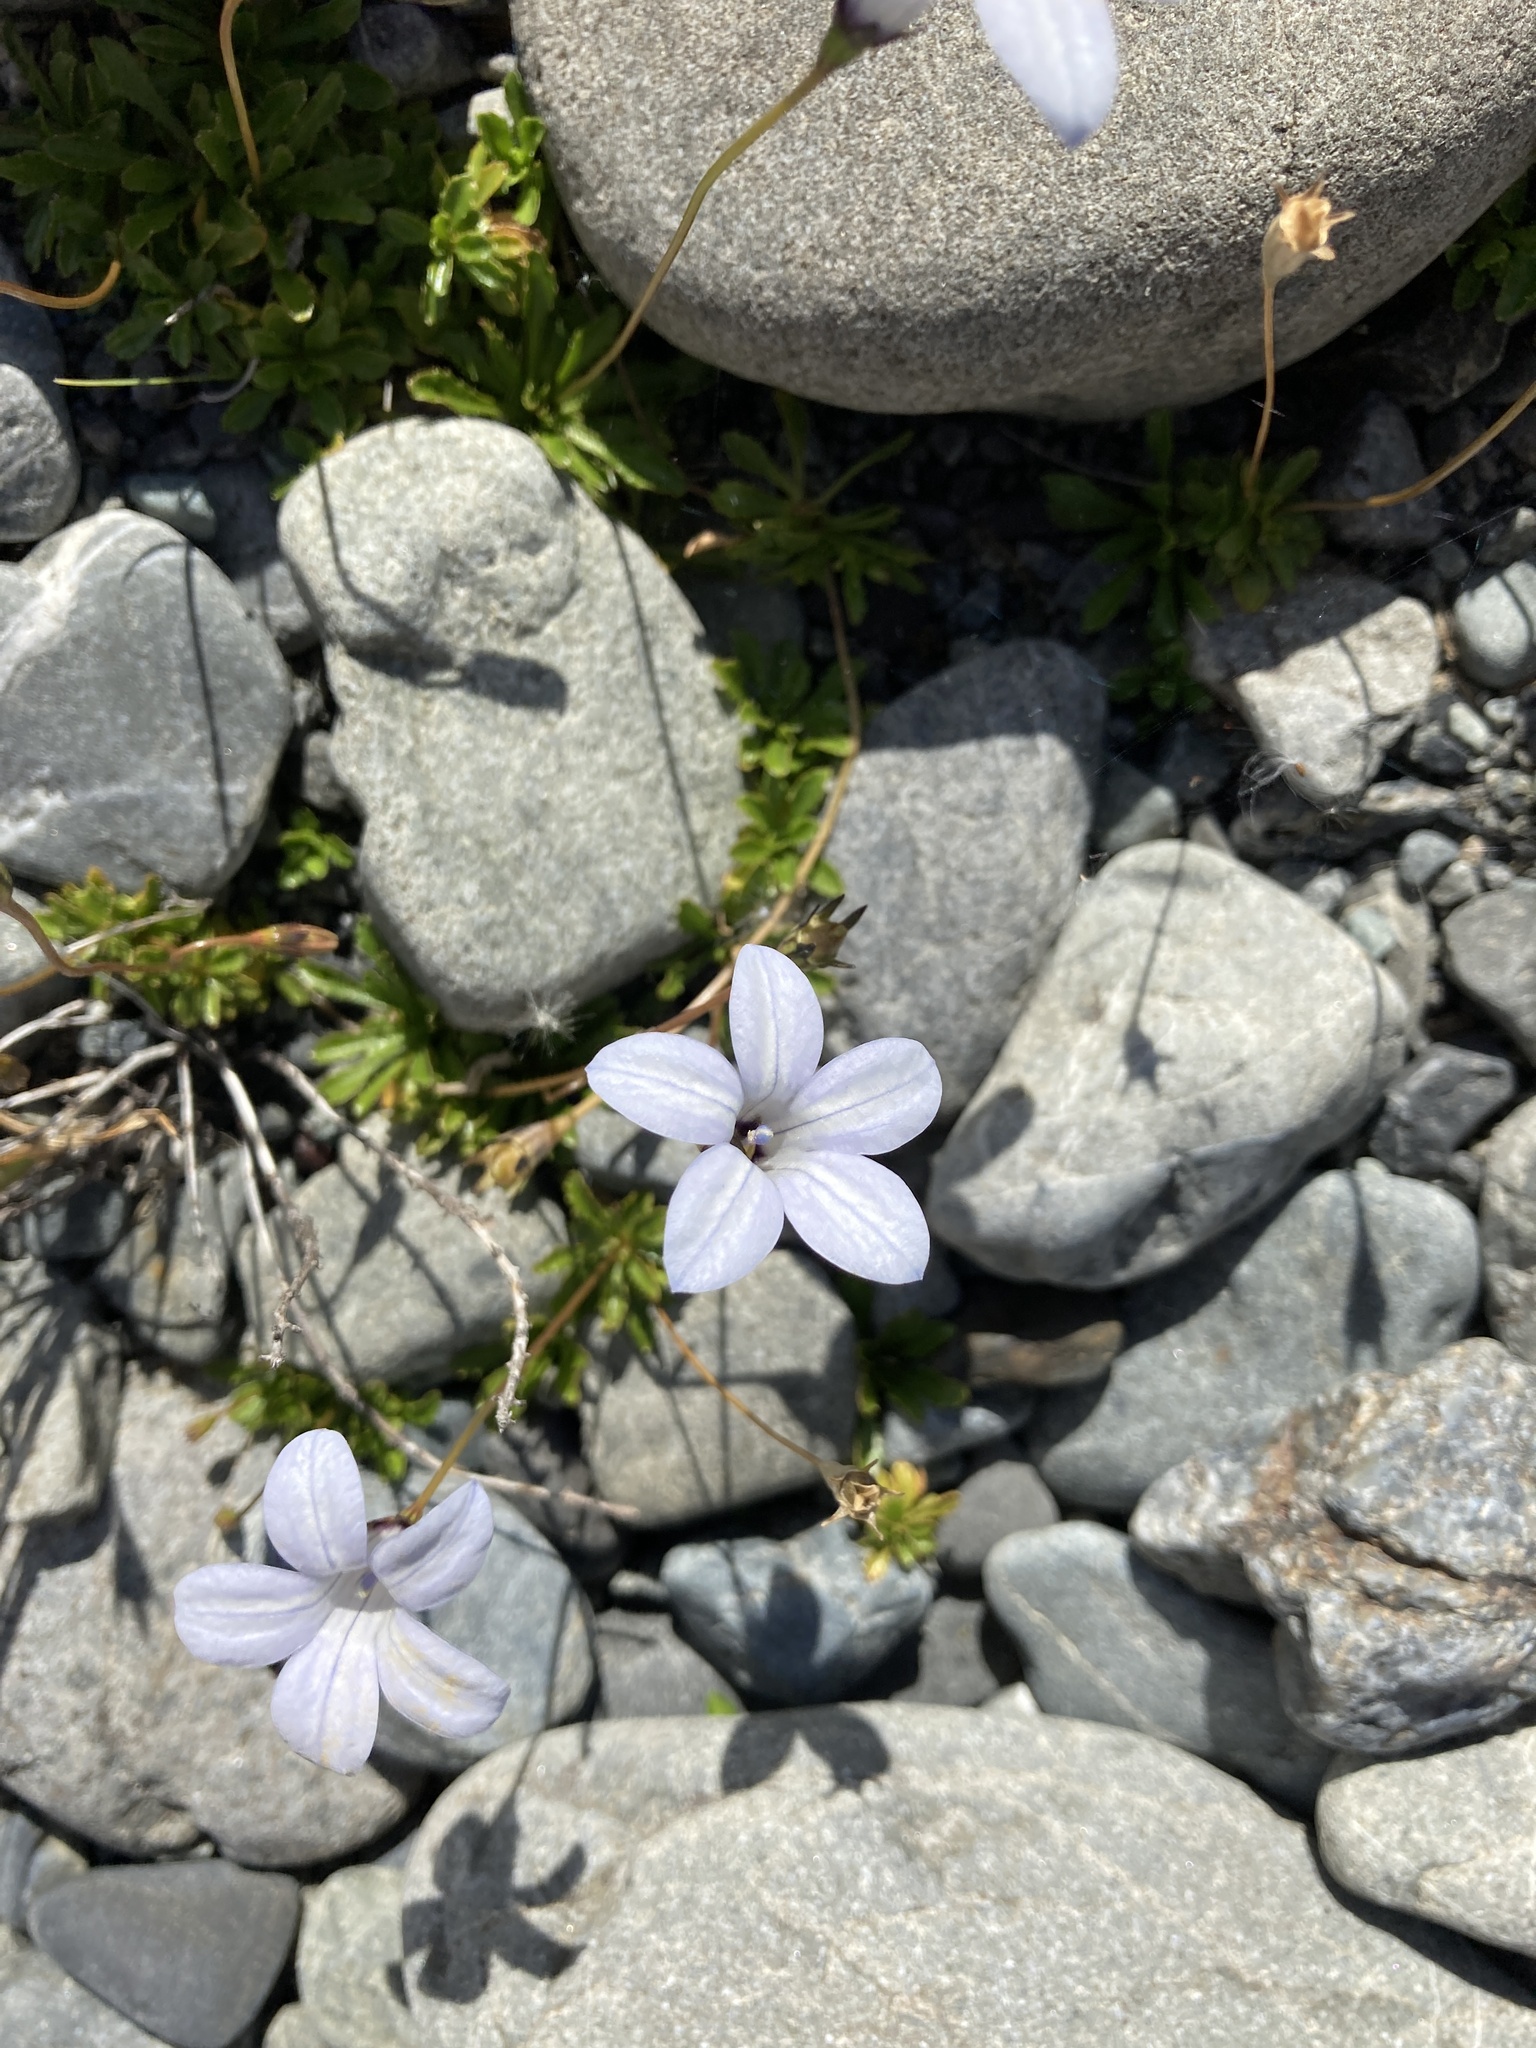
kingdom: Plantae
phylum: Tracheophyta
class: Magnoliopsida
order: Asterales
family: Campanulaceae
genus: Wahlenbergia
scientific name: Wahlenbergia albomarginata
